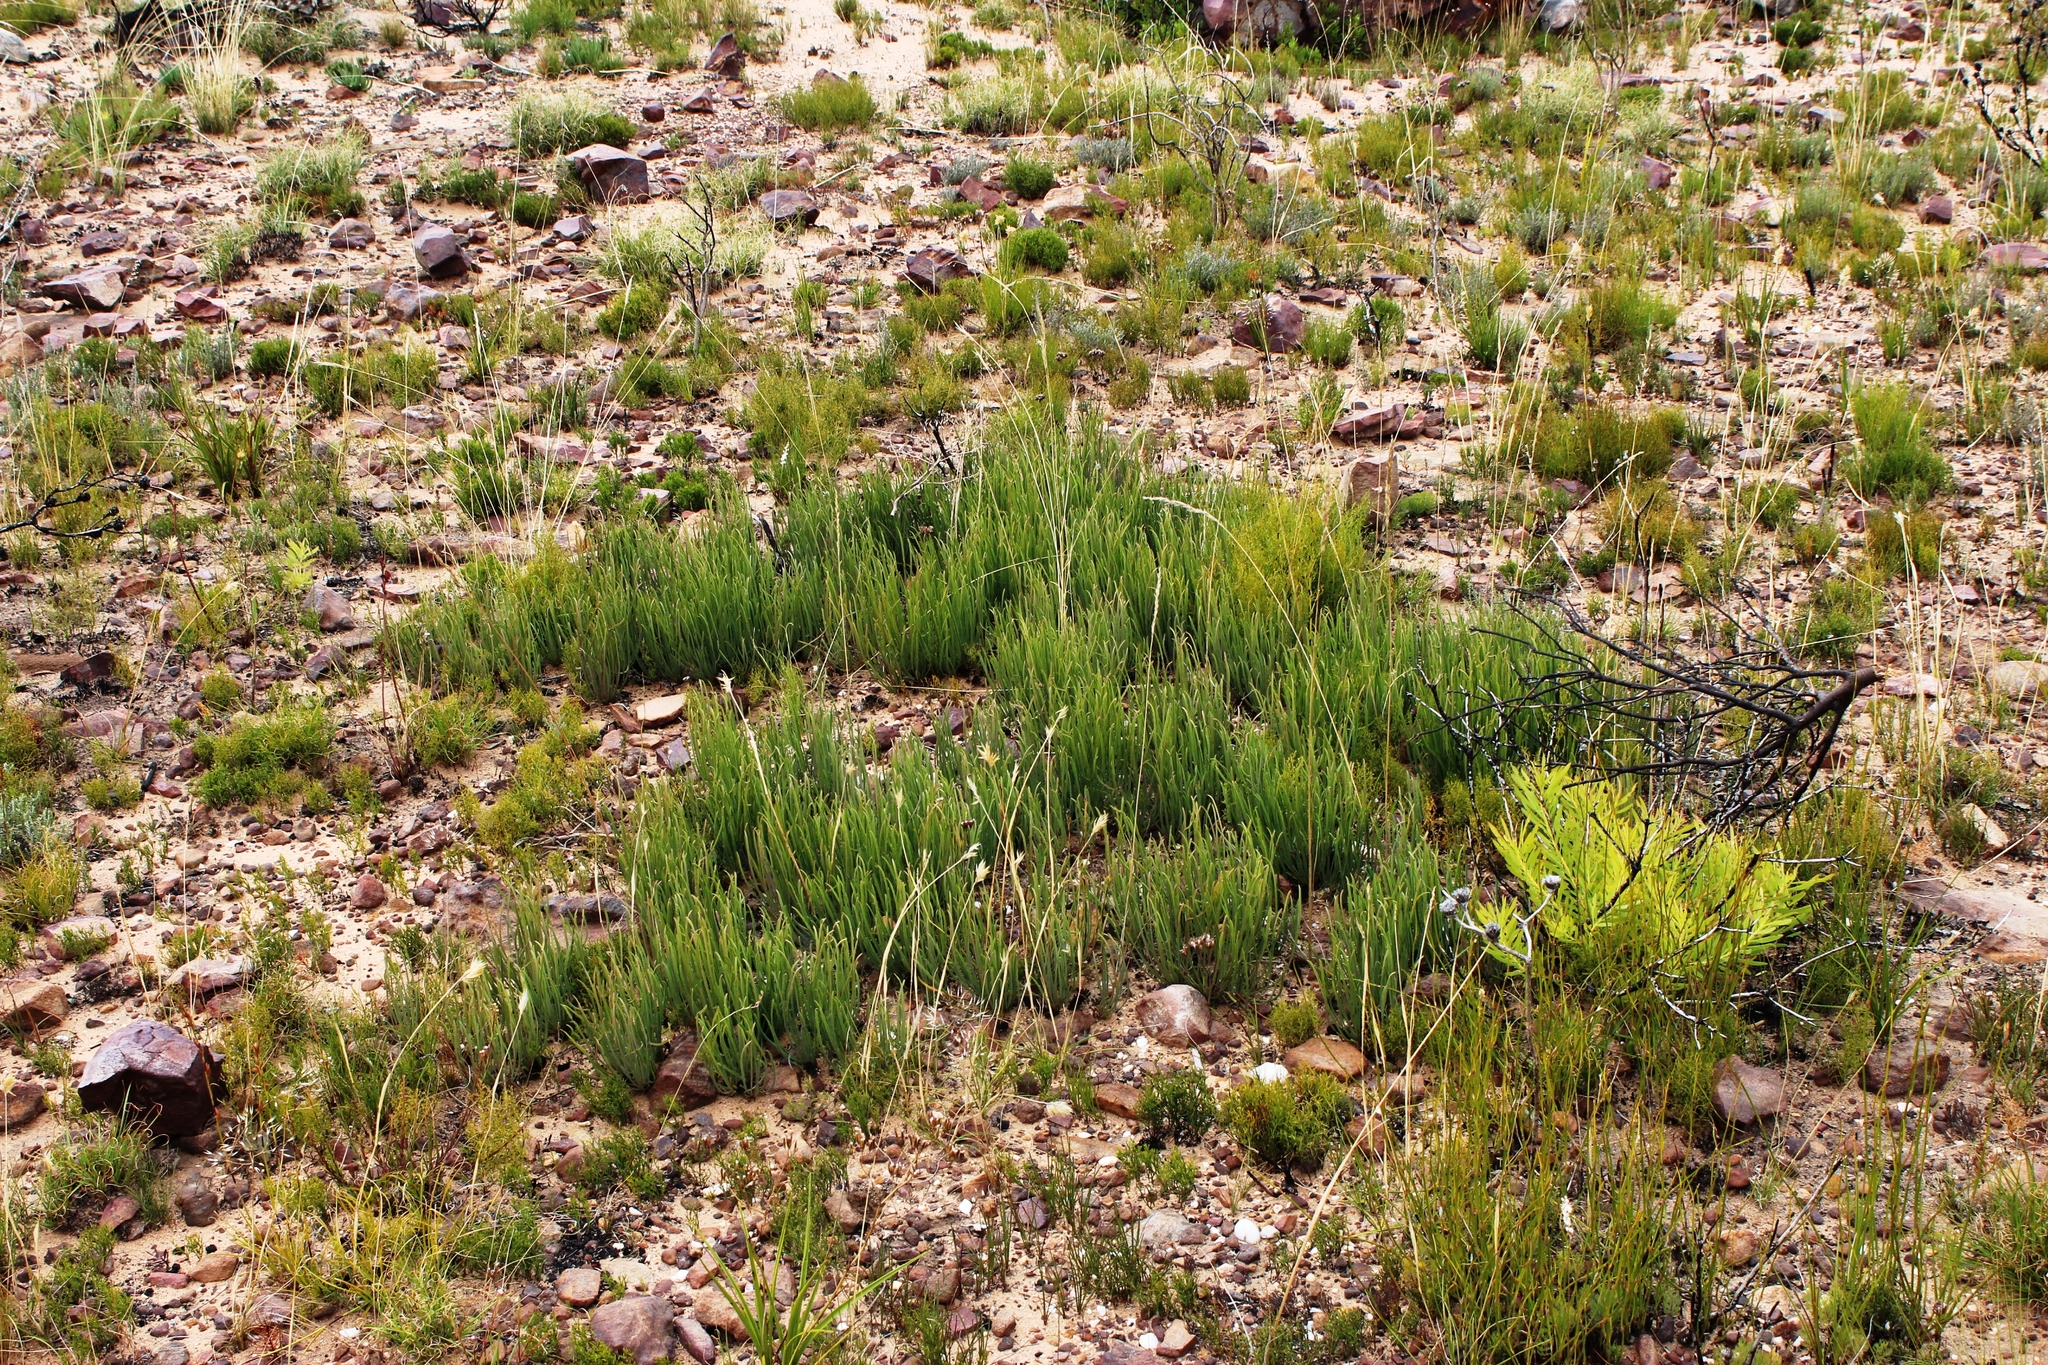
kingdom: Plantae
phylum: Tracheophyta
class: Magnoliopsida
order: Proteales
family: Proteaceae
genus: Protea
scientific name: Protea piscina
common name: Visgat sugarbush
